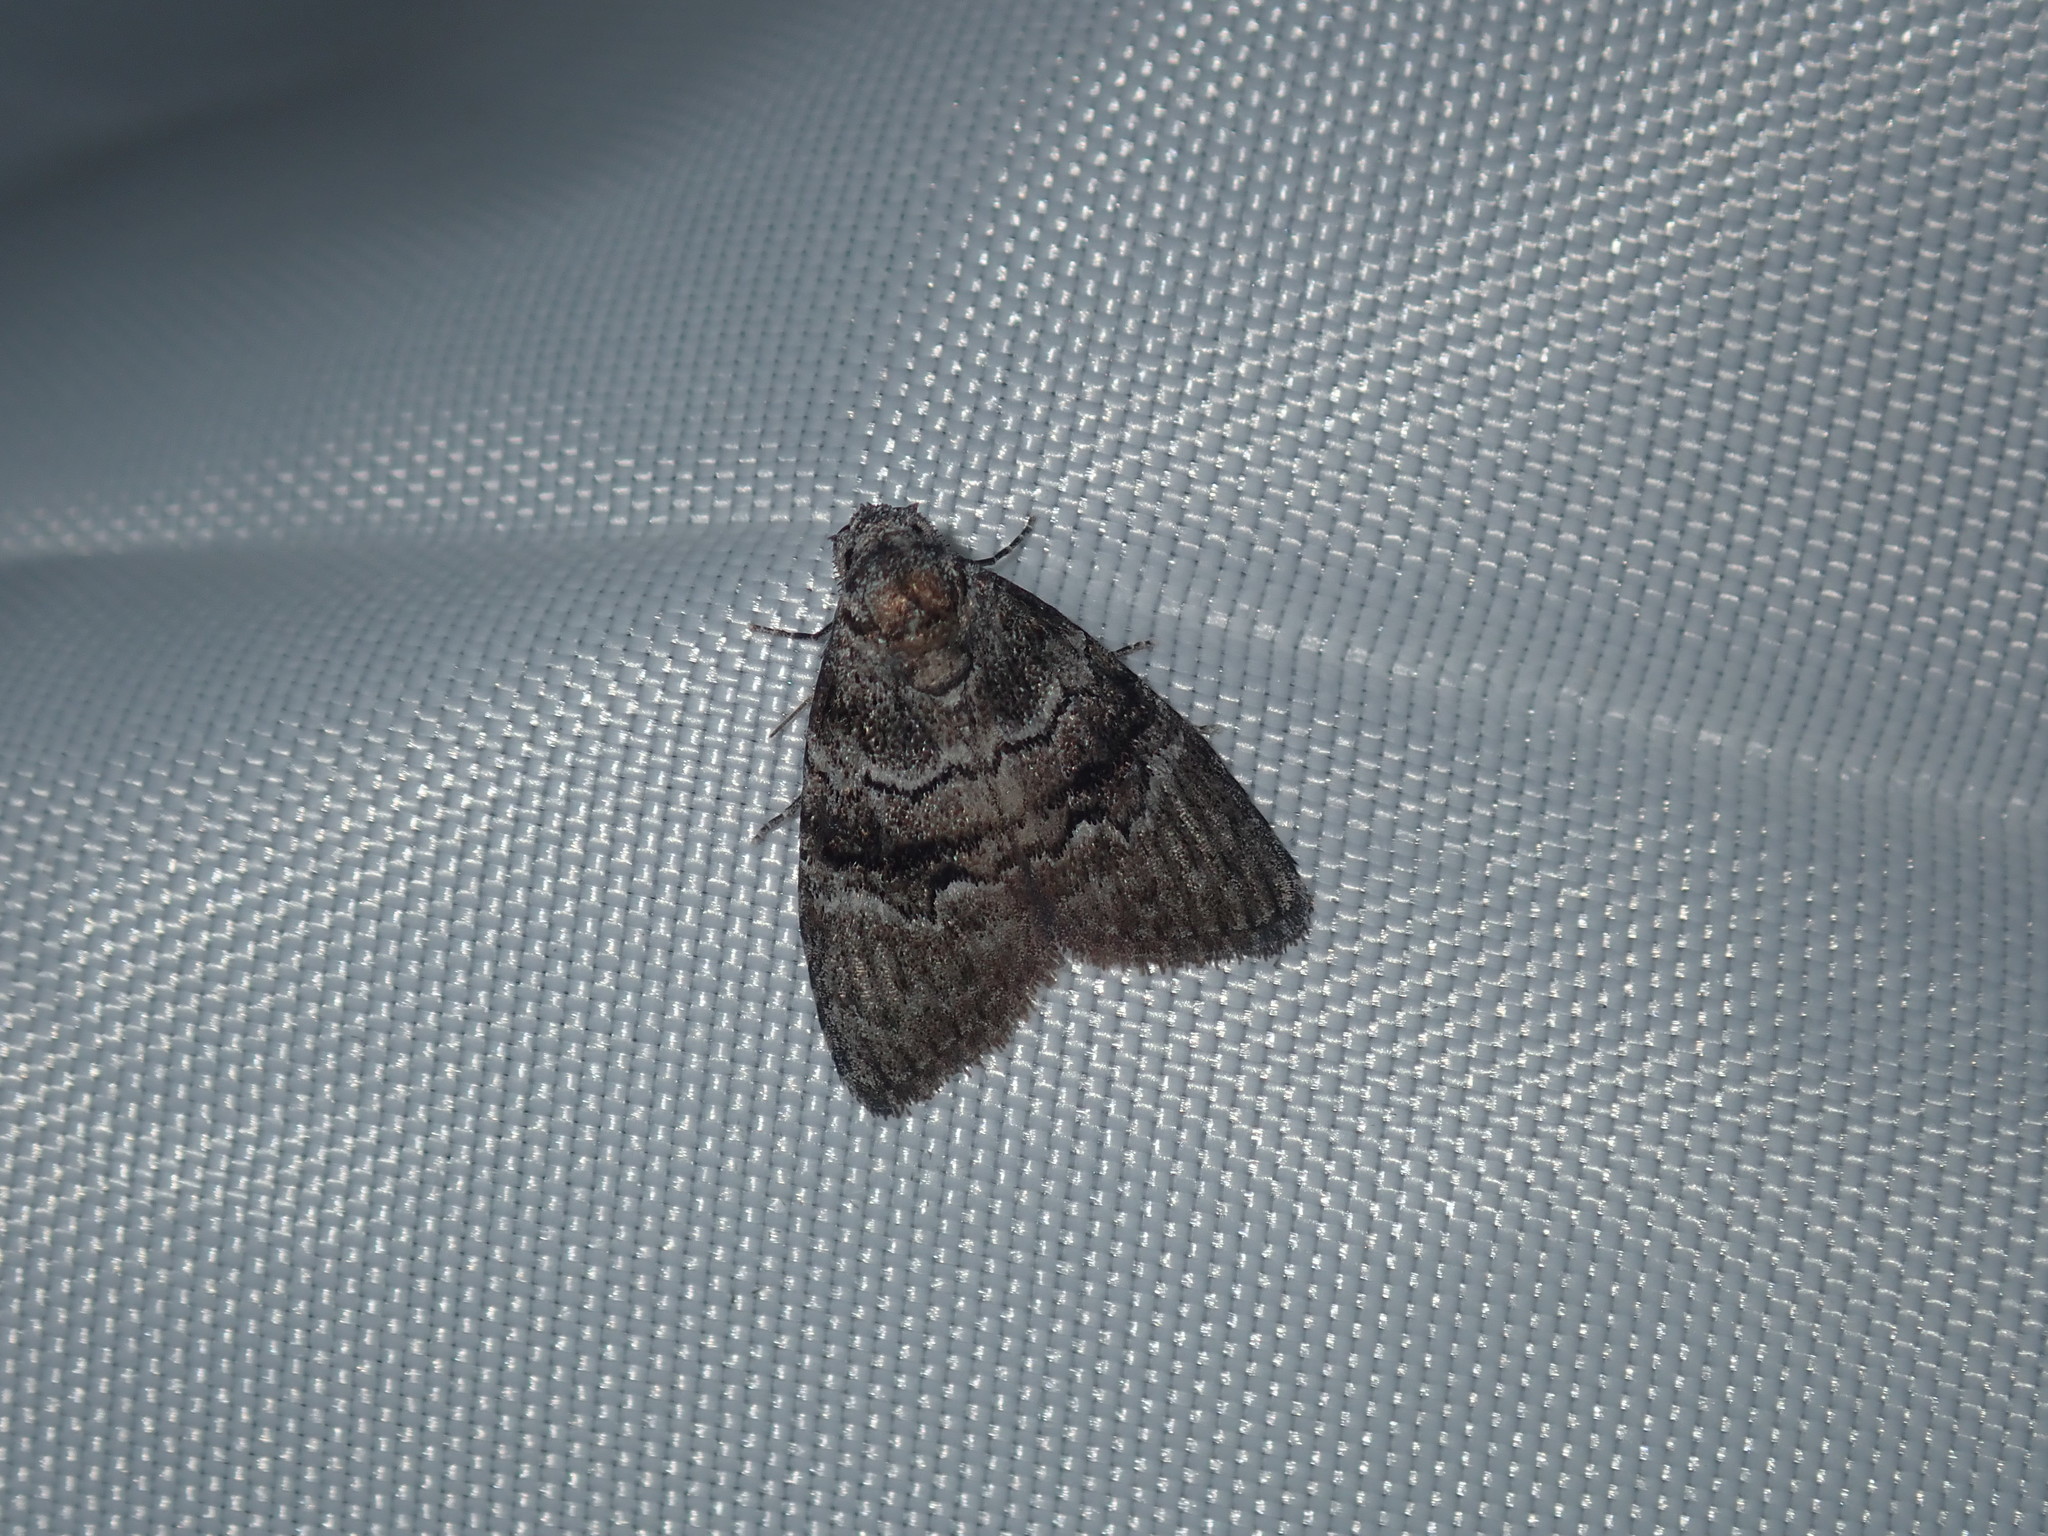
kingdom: Animalia
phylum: Arthropoda
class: Insecta
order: Lepidoptera
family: Nolidae
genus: Uraba
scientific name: Uraba lugens
